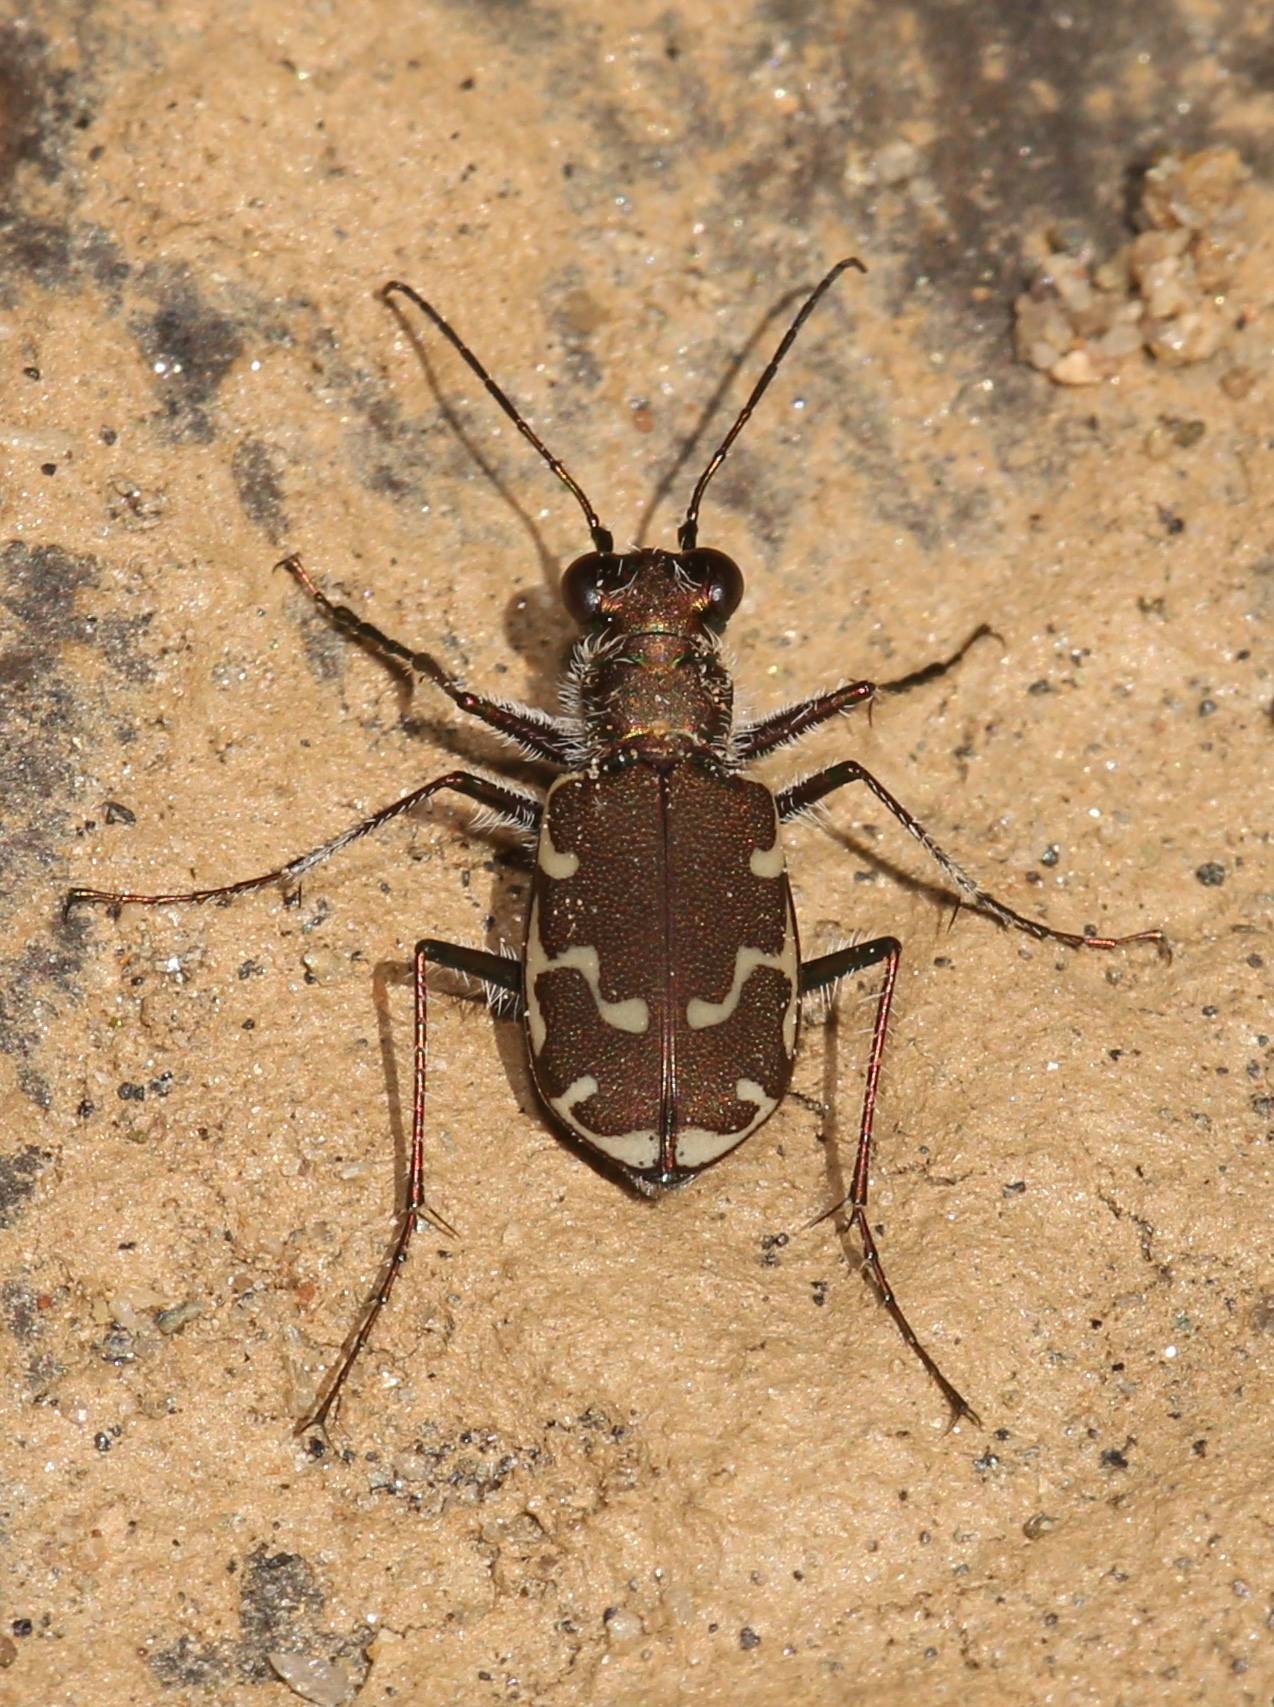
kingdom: Animalia
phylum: Arthropoda
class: Insecta
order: Coleoptera
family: Carabidae
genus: Cicindela
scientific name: Cicindela repanda
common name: Bronzed tiger beetle
